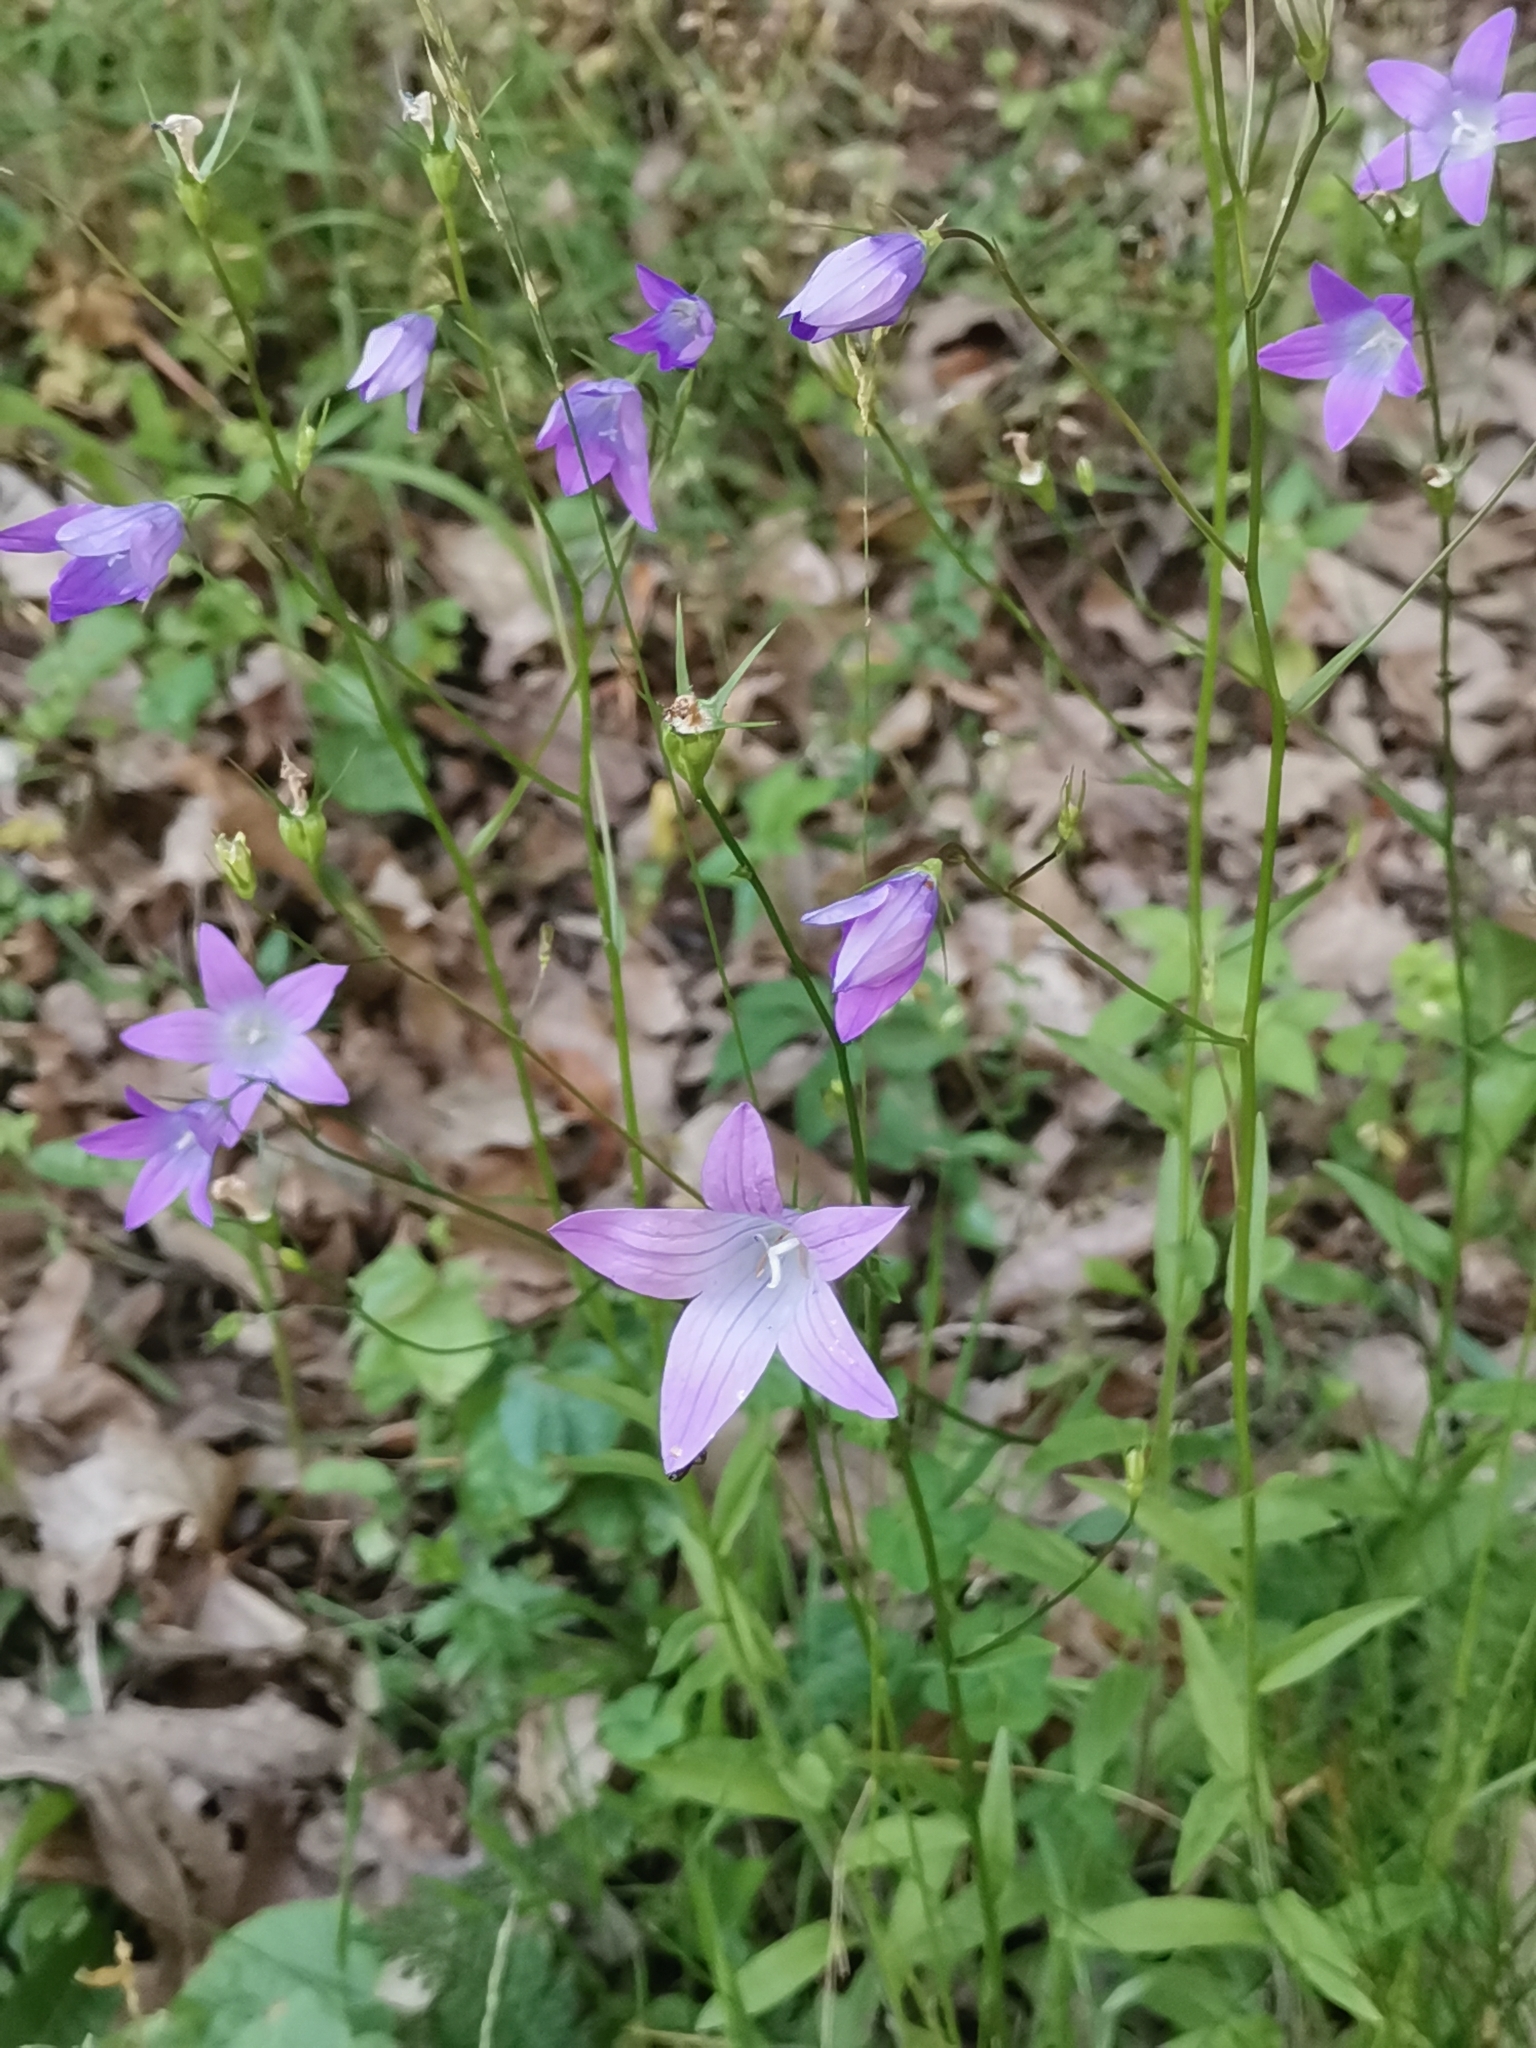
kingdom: Plantae
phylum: Tracheophyta
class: Magnoliopsida
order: Asterales
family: Campanulaceae
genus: Campanula
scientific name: Campanula patula
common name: Spreading bellflower
